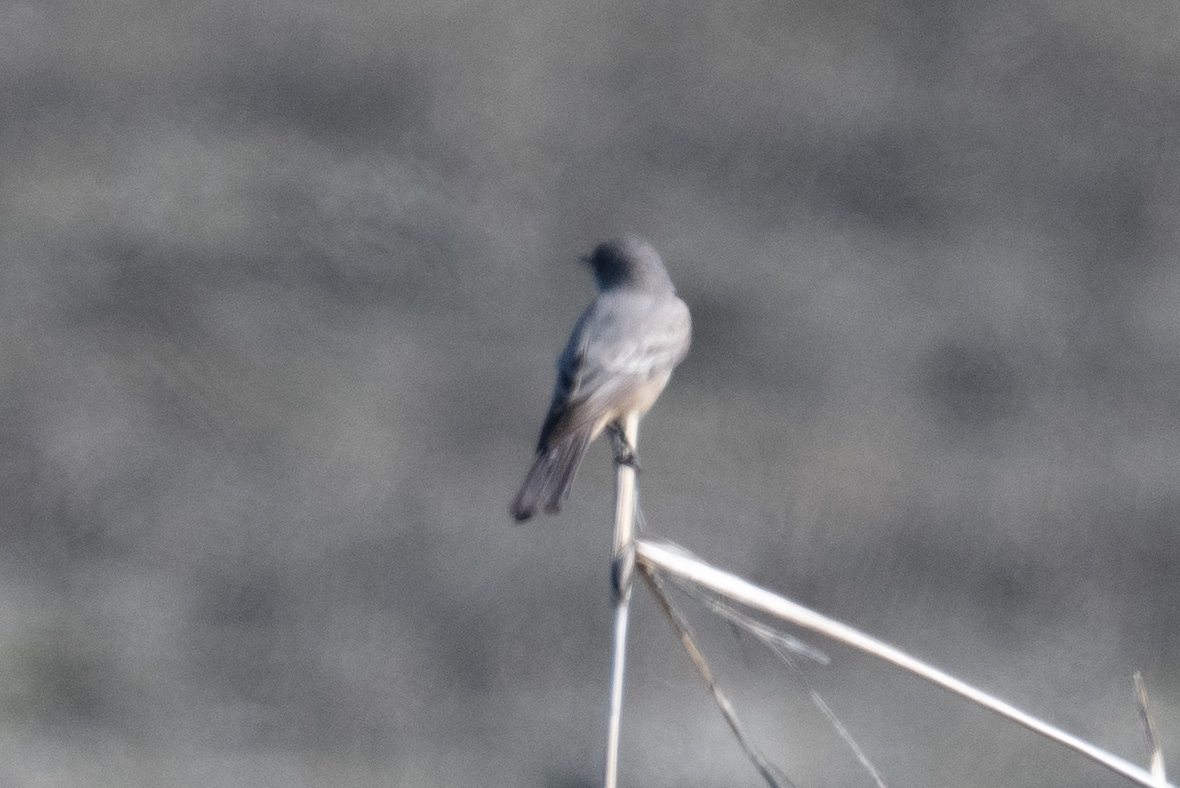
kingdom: Animalia
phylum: Chordata
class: Aves
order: Passeriformes
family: Tyrannidae
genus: Sayornis
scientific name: Sayornis saya
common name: Say's phoebe
